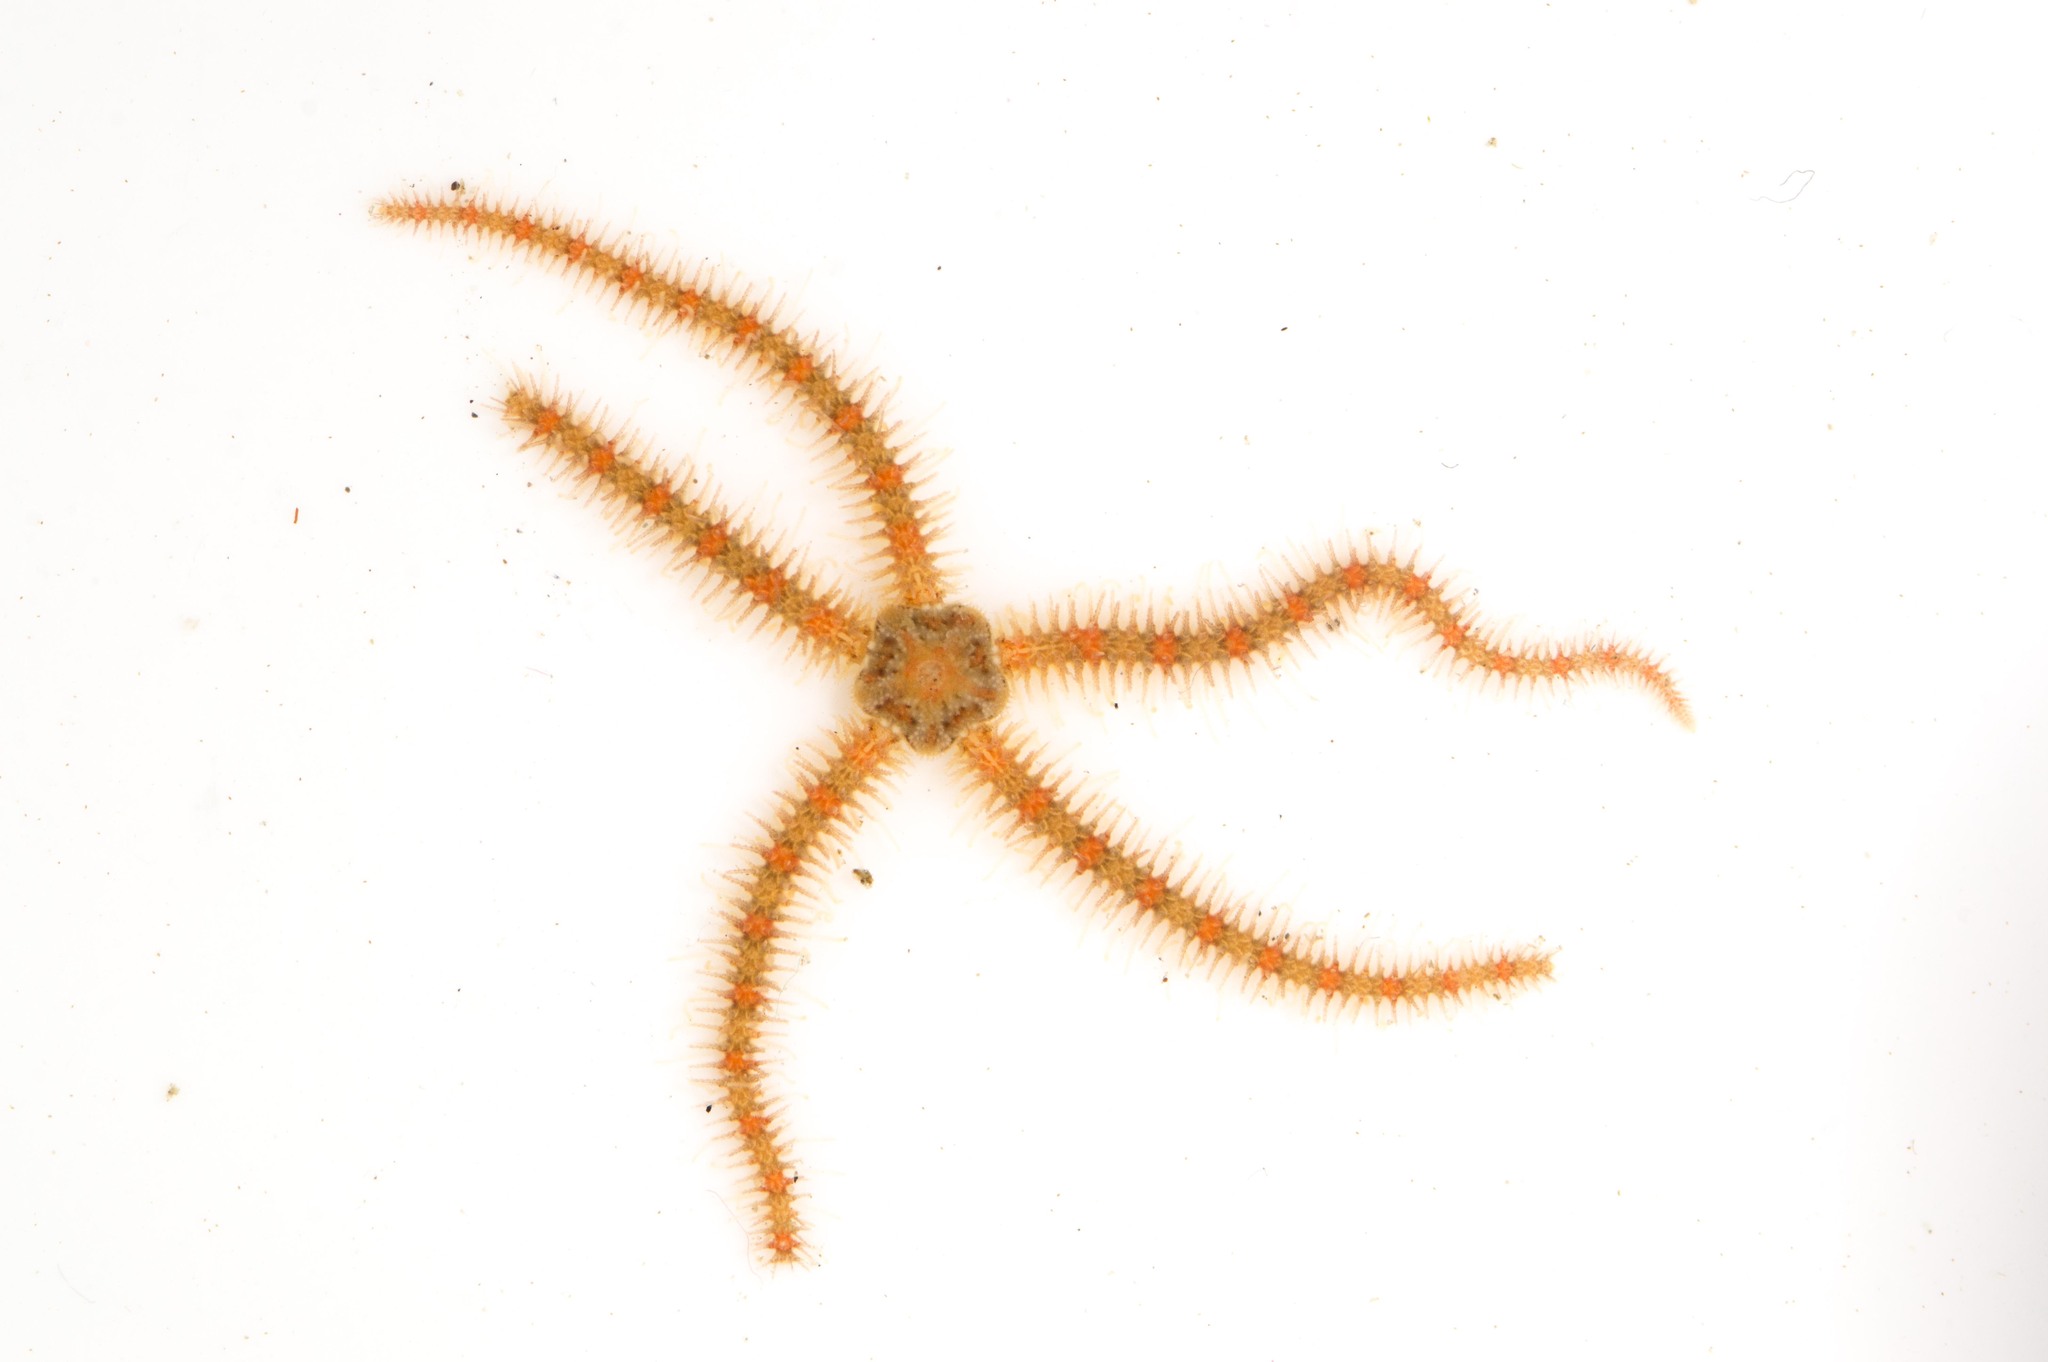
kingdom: Animalia
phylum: Echinodermata
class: Ophiuroidea
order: Amphilepidida
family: Ophiotrichidae
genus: Ophiothrix
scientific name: Ophiothrix spiculata
